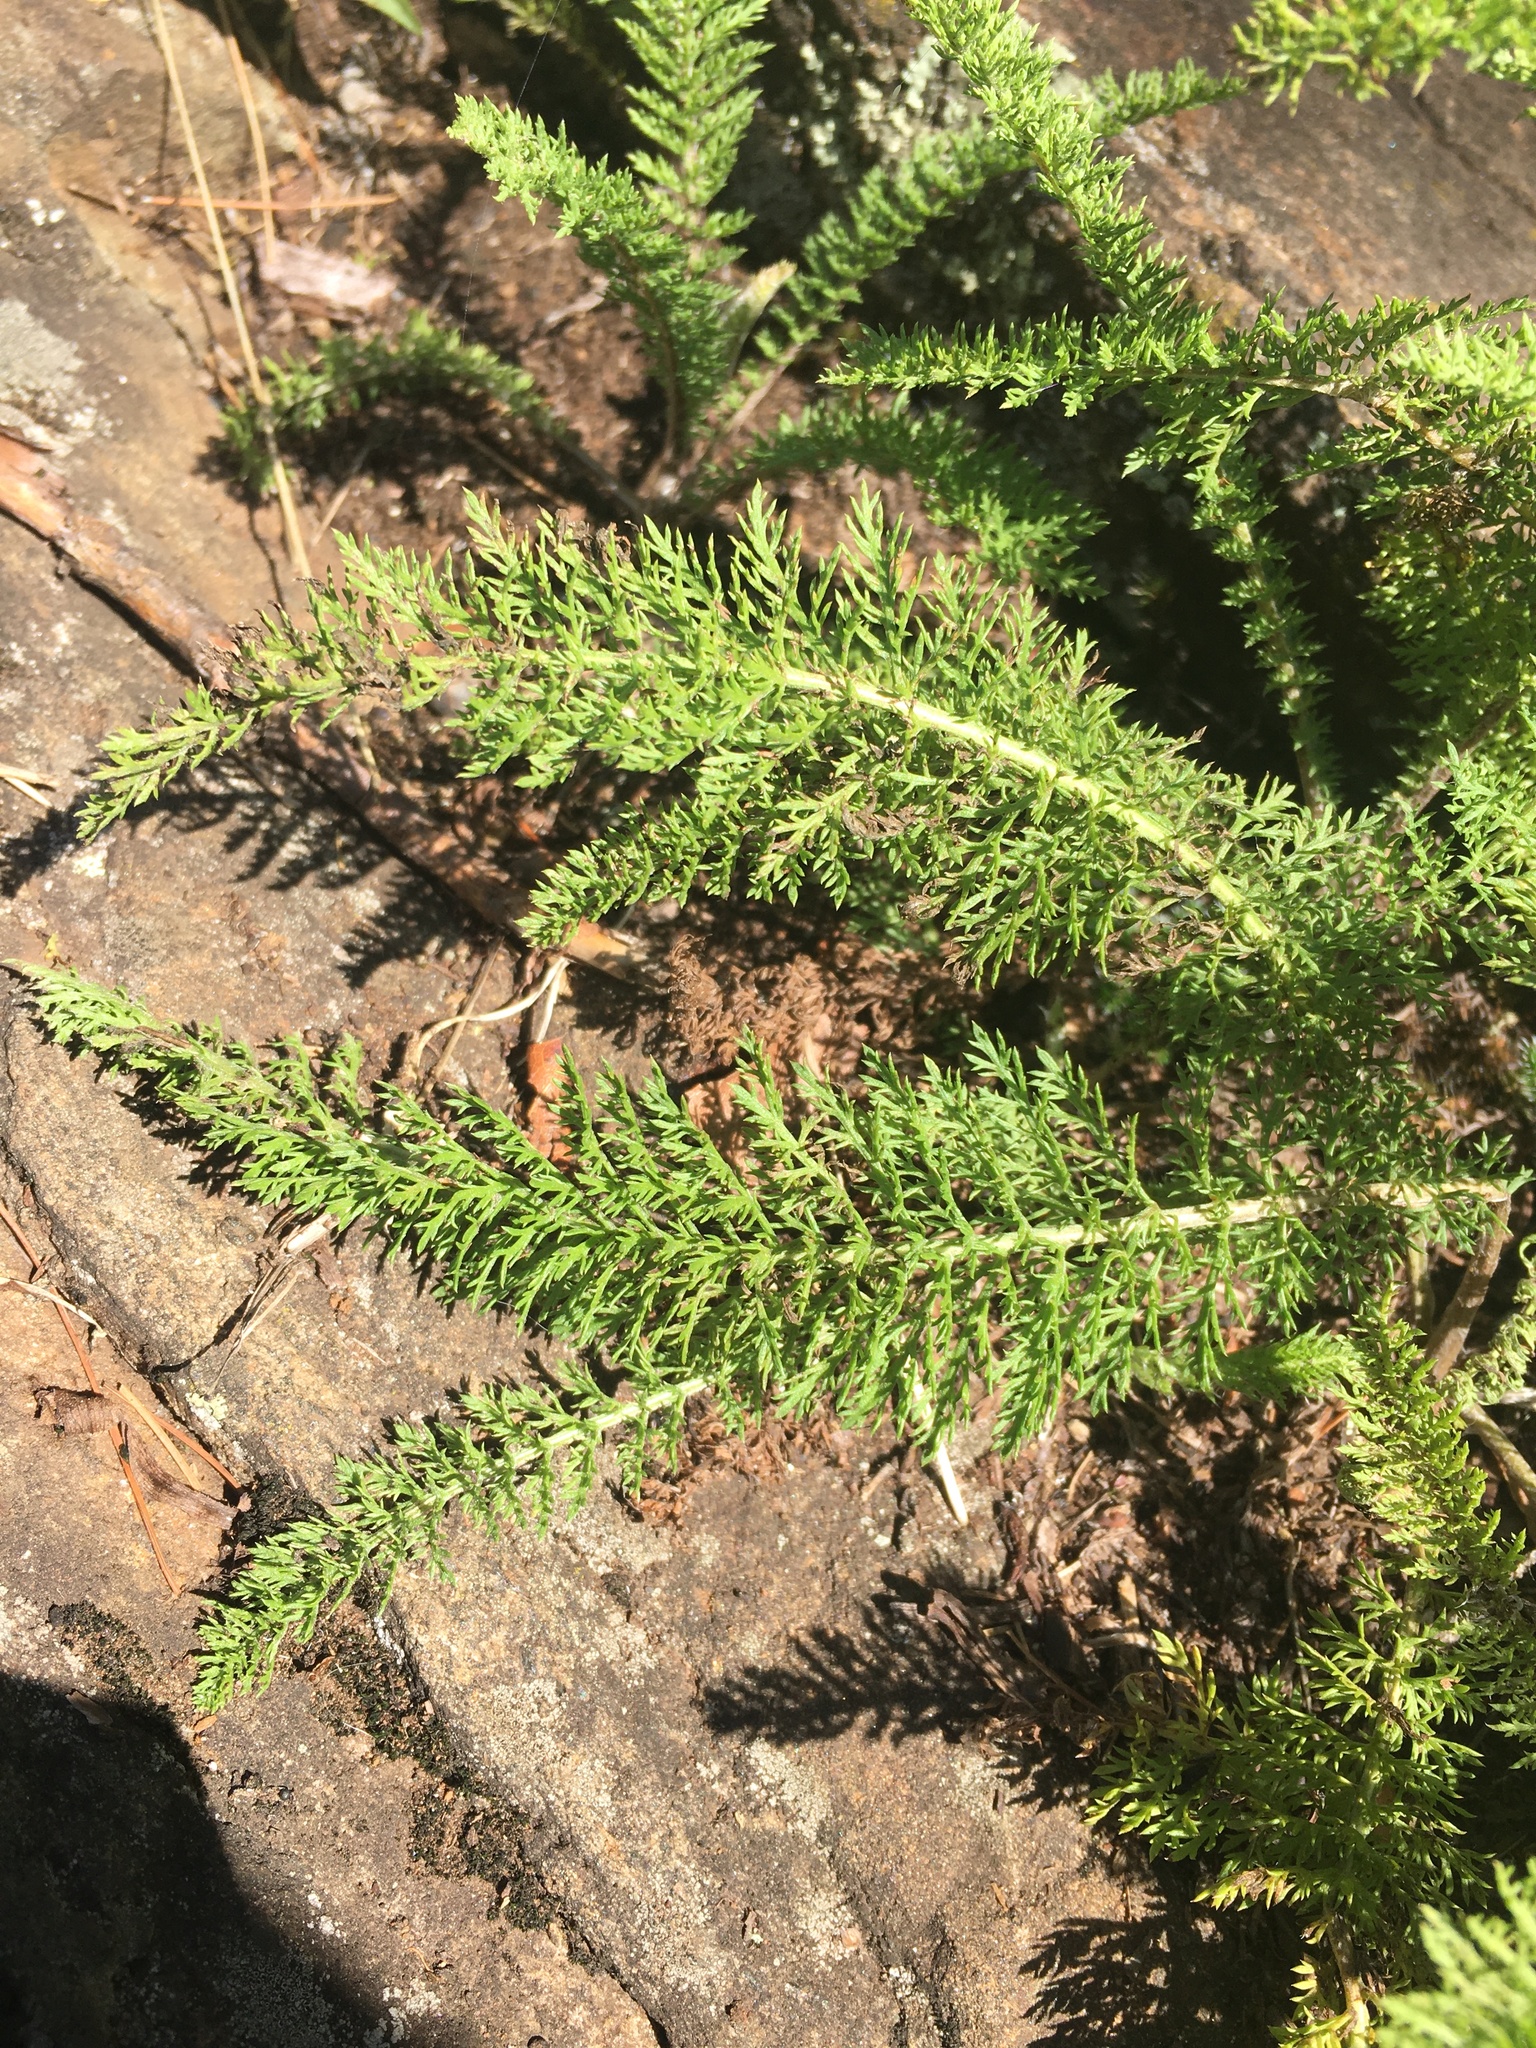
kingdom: Plantae
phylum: Tracheophyta
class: Magnoliopsida
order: Asterales
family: Asteraceae
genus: Achillea
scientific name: Achillea millefolium
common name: Yarrow
